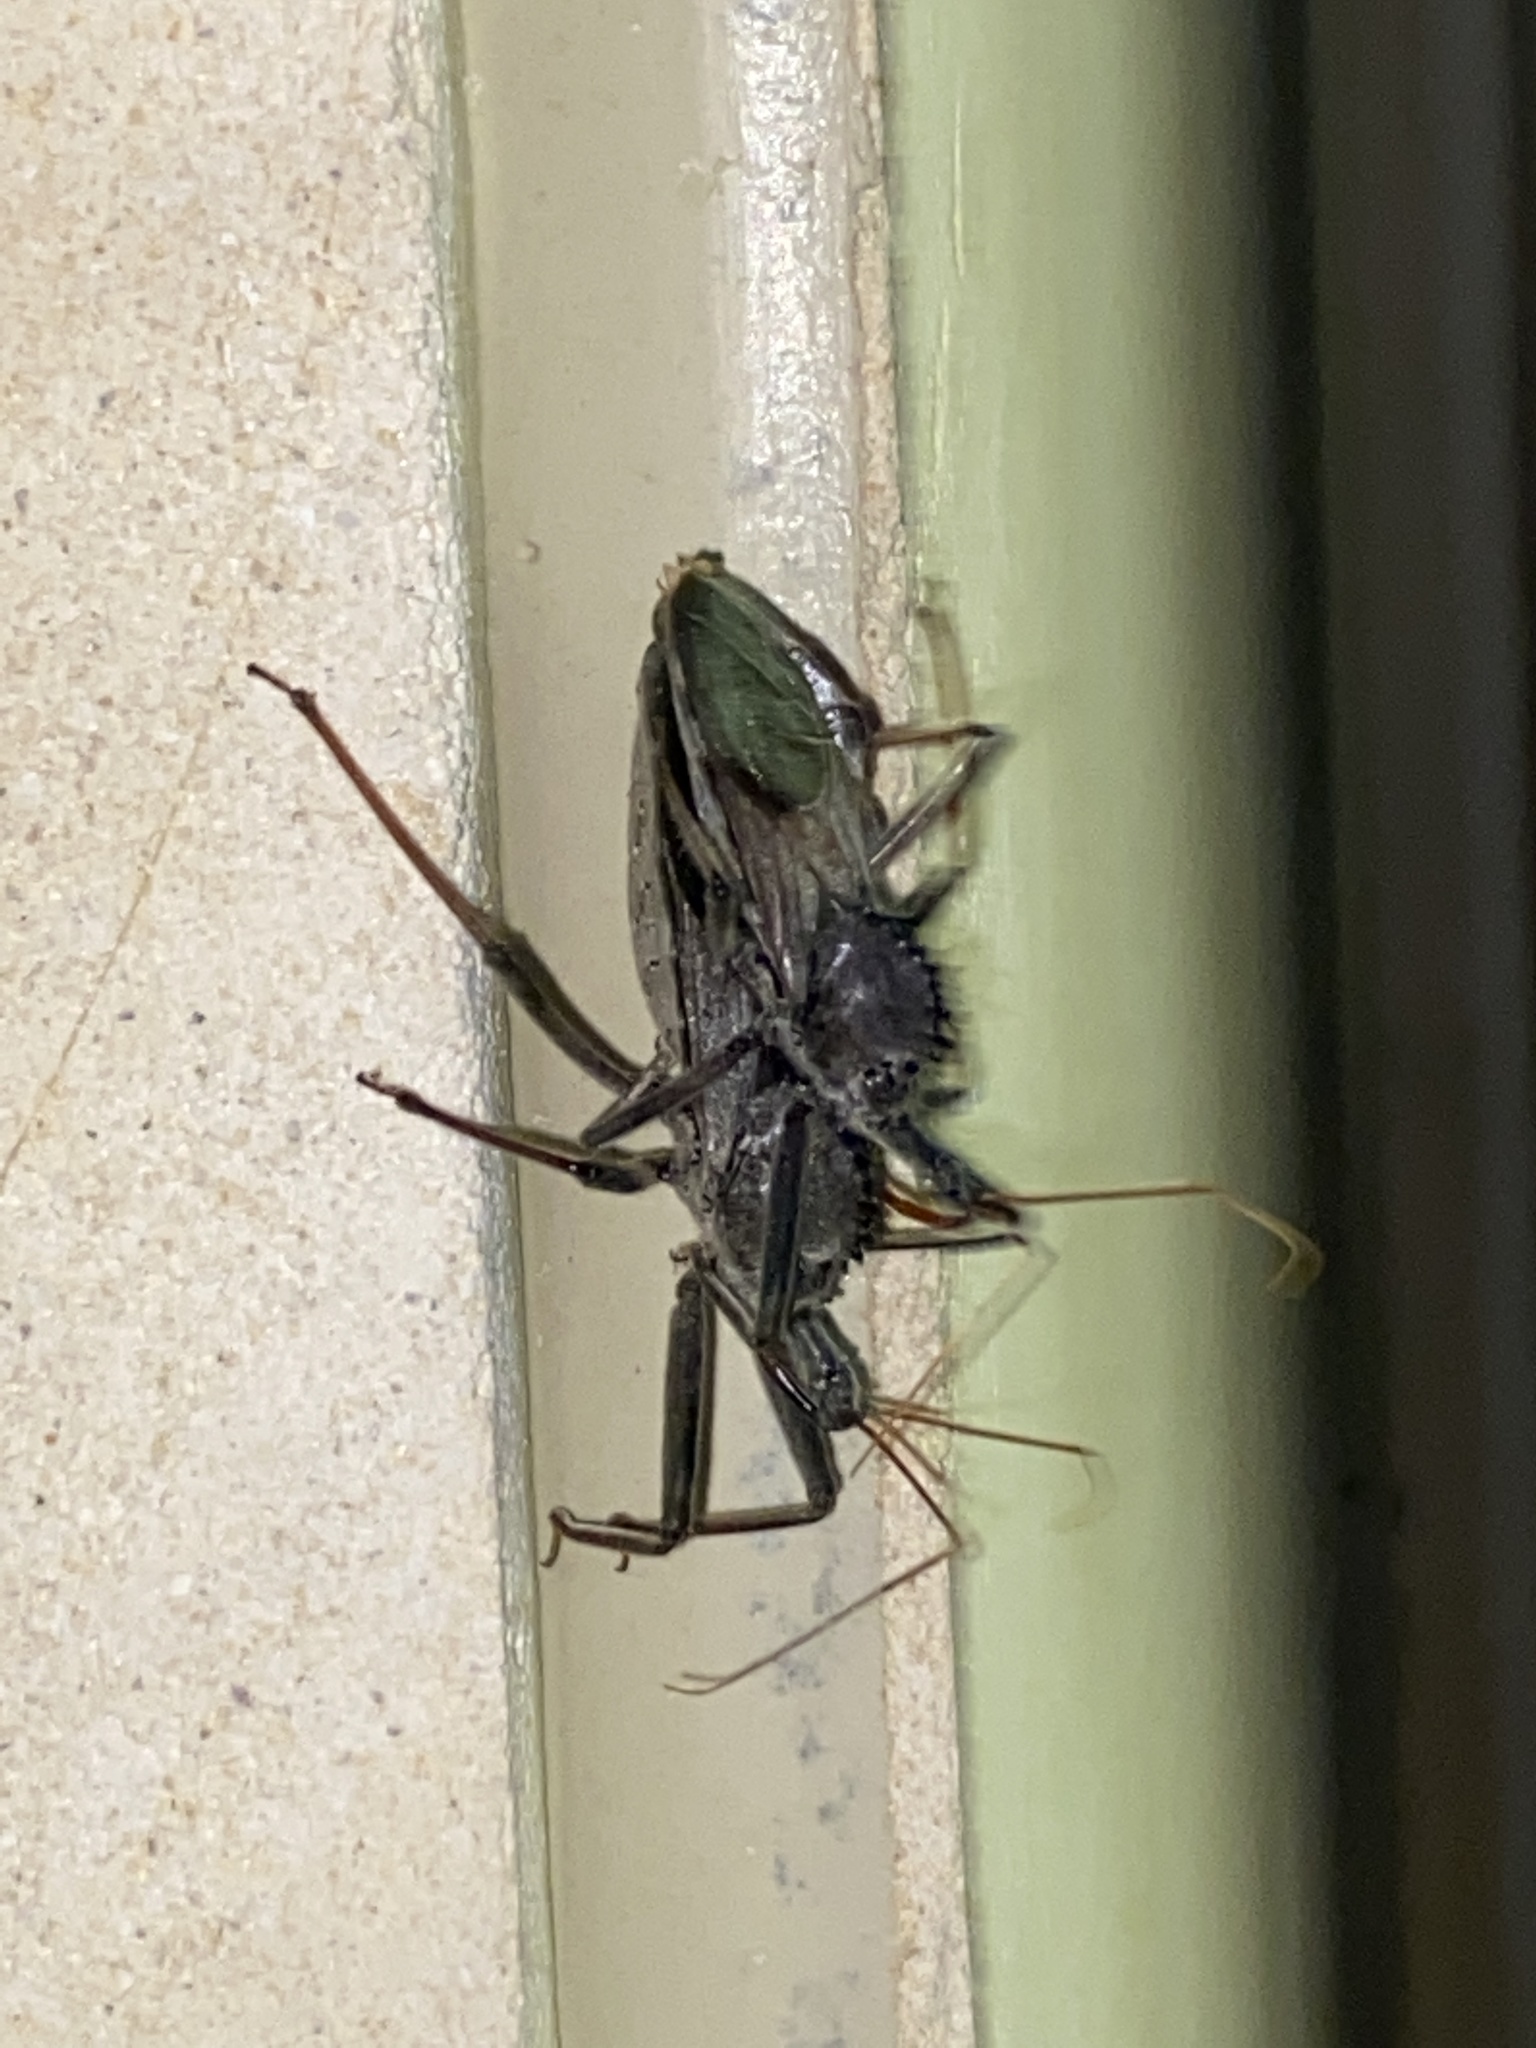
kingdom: Animalia
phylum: Arthropoda
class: Insecta
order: Hemiptera
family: Reduviidae
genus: Arilus
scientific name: Arilus cristatus
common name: North american wheel bug
